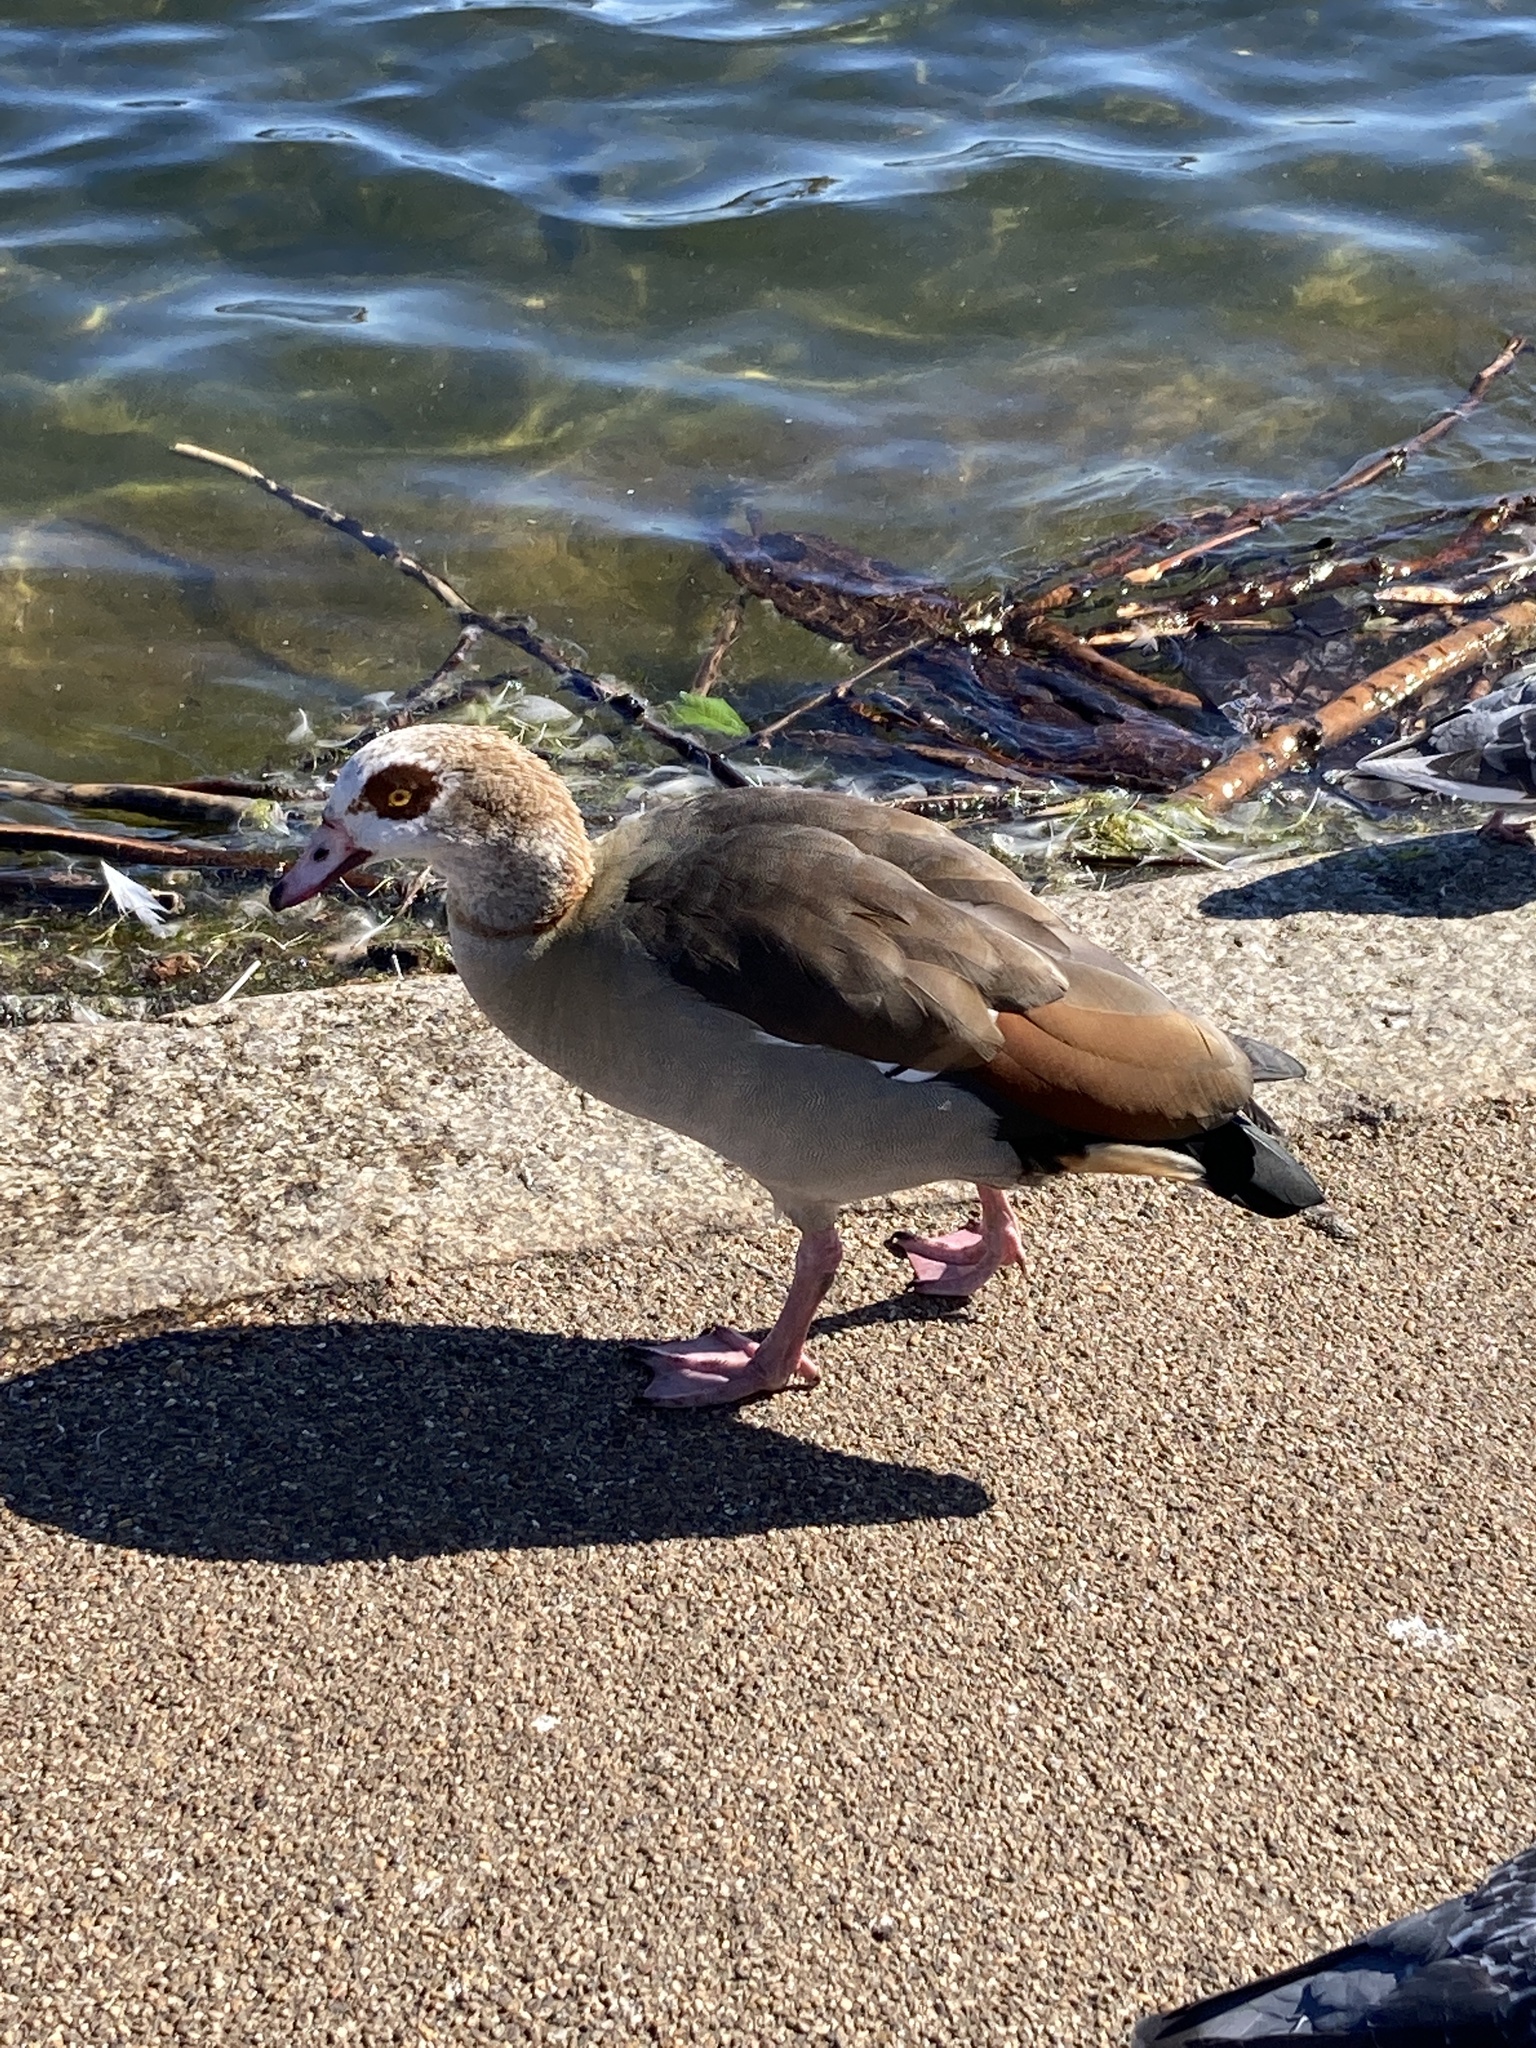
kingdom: Animalia
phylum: Chordata
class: Aves
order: Anseriformes
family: Anatidae
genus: Alopochen
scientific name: Alopochen aegyptiaca
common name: Egyptian goose
